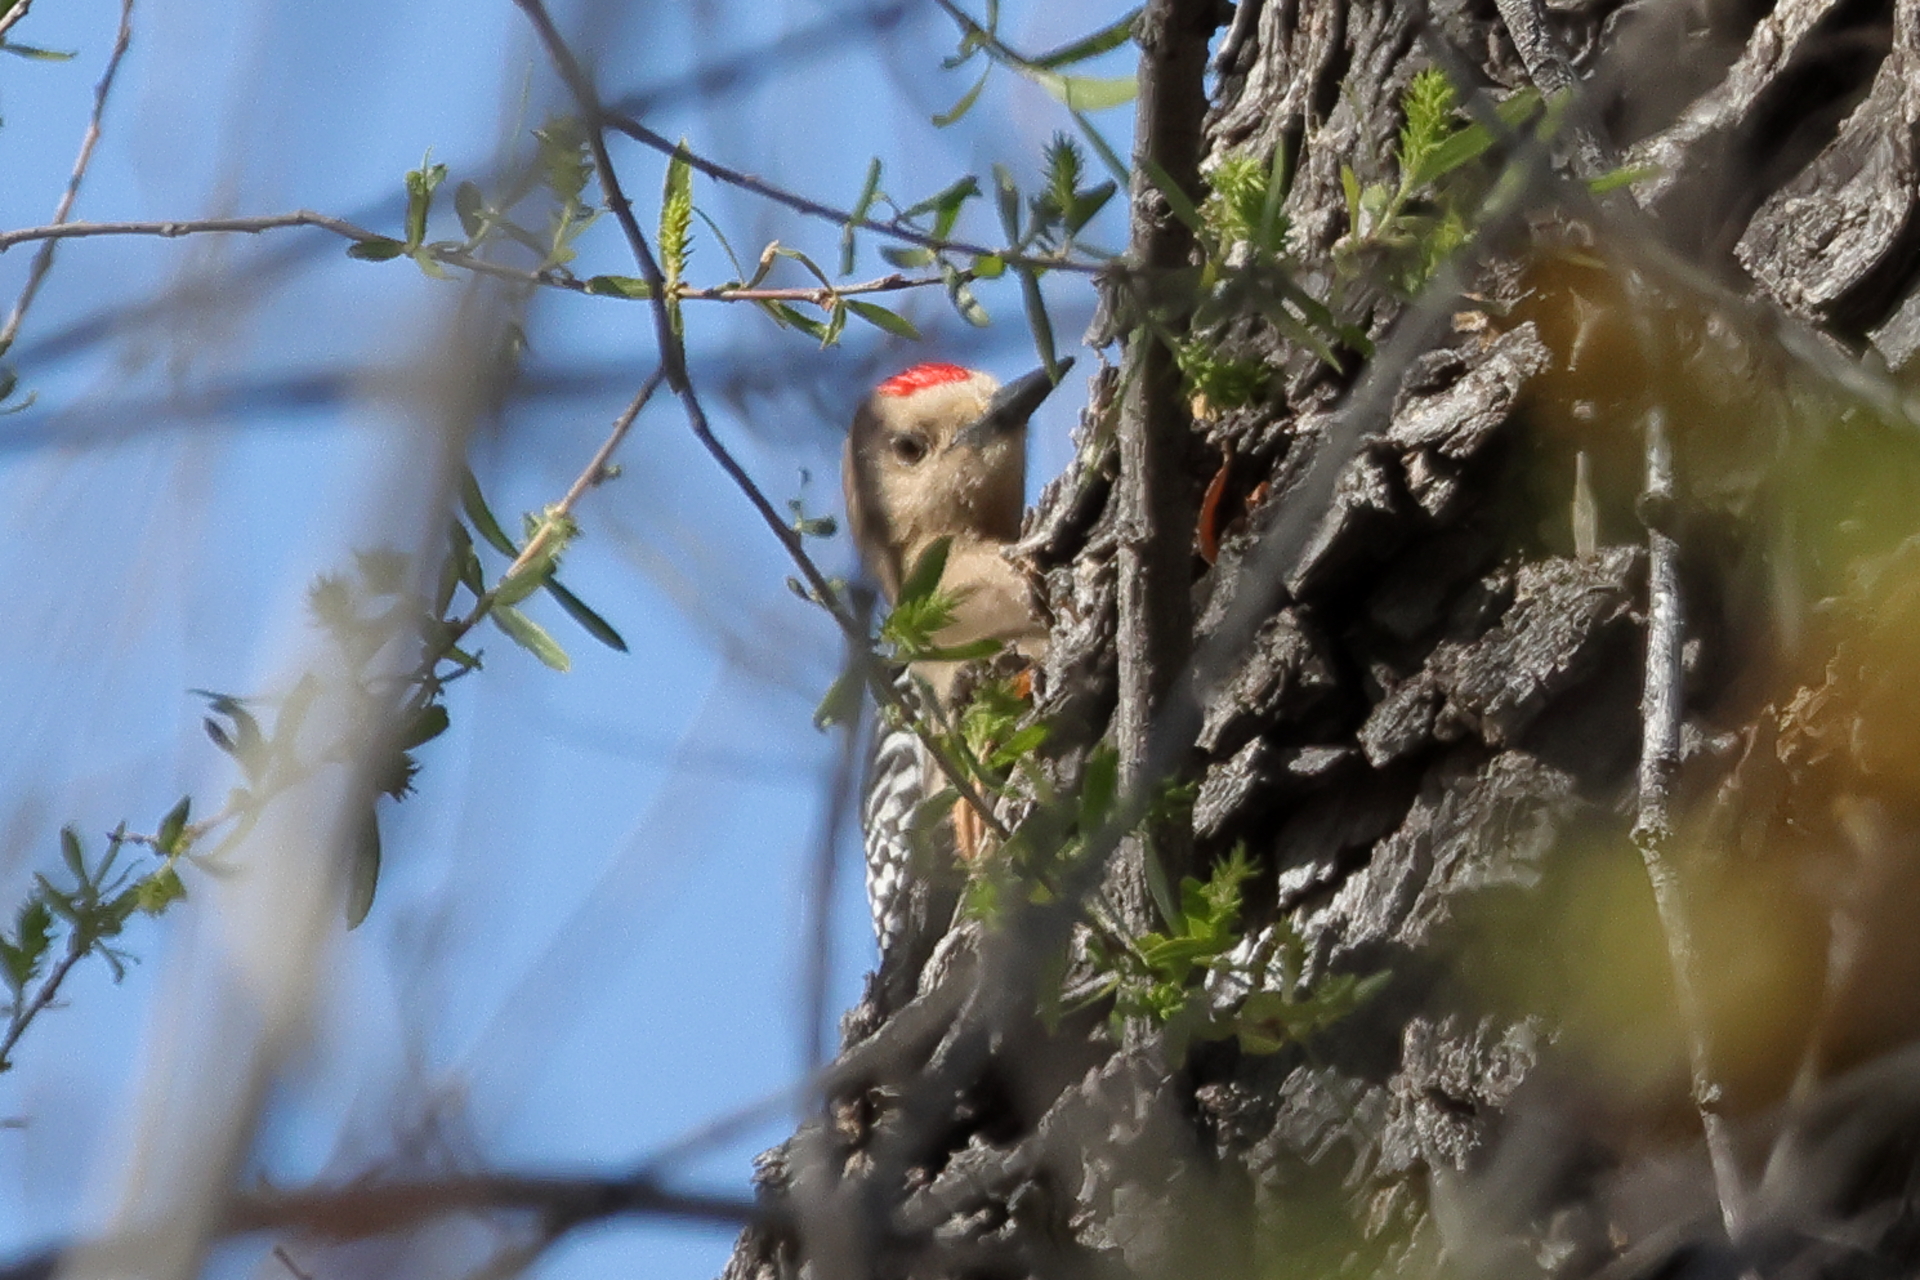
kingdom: Animalia
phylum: Chordata
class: Aves
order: Piciformes
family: Picidae
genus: Melanerpes
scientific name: Melanerpes uropygialis
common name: Gila woodpecker
